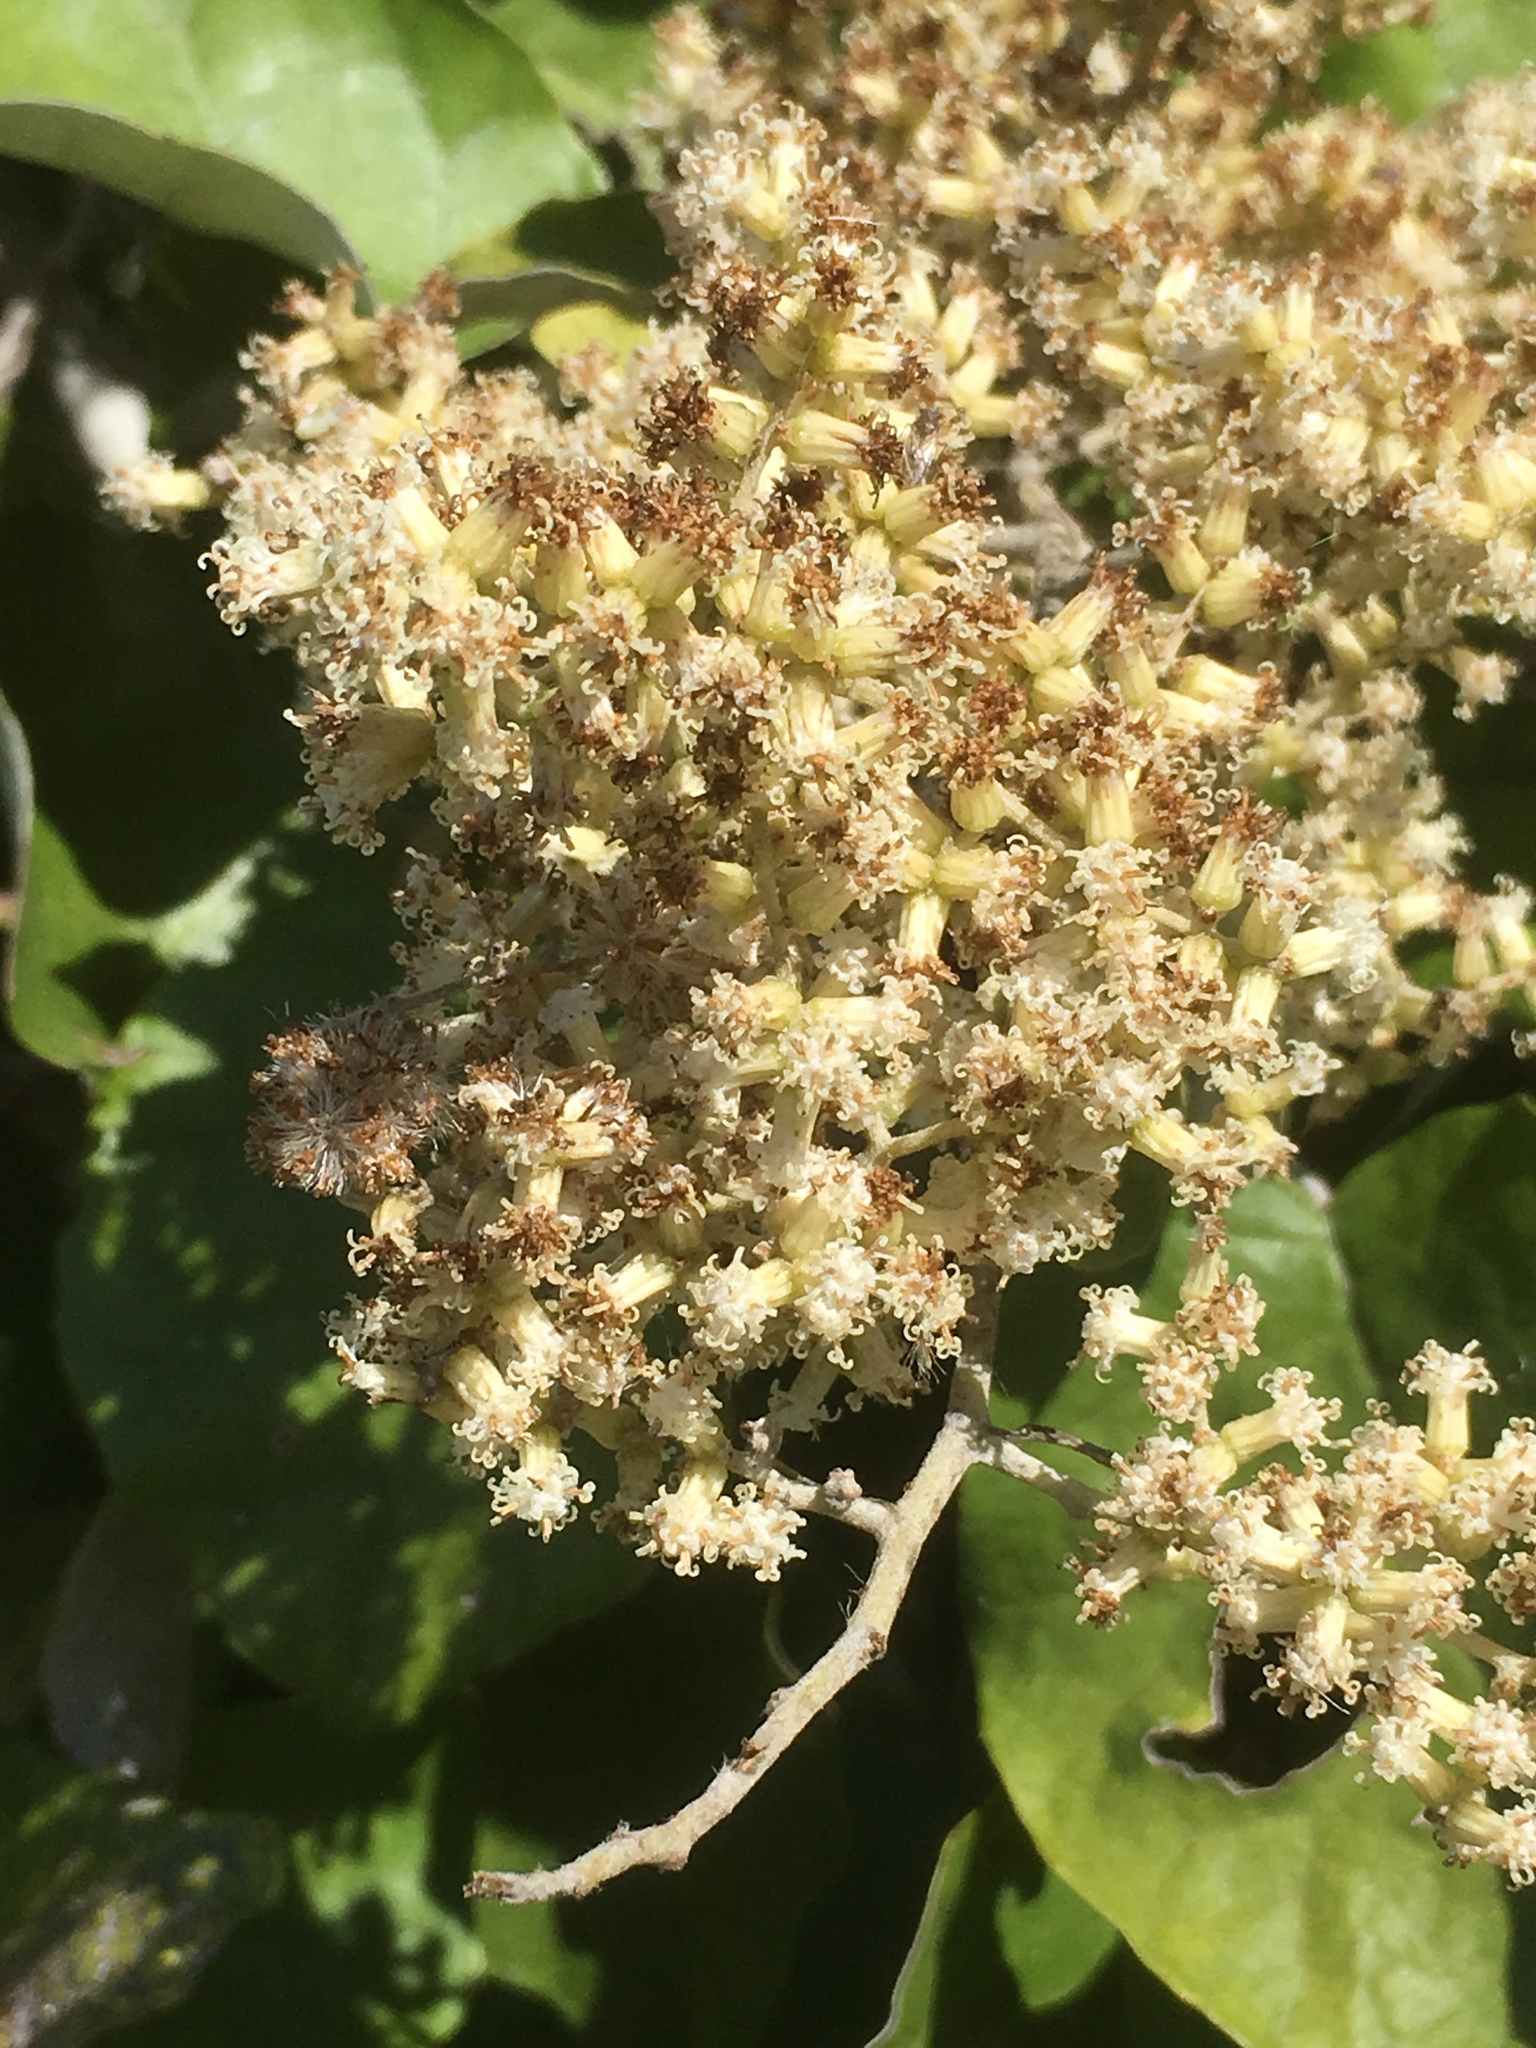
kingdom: Plantae
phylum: Tracheophyta
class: Magnoliopsida
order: Asterales
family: Asteraceae
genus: Brachyglottis
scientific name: Brachyglottis repanda
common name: Hedge ragwort
